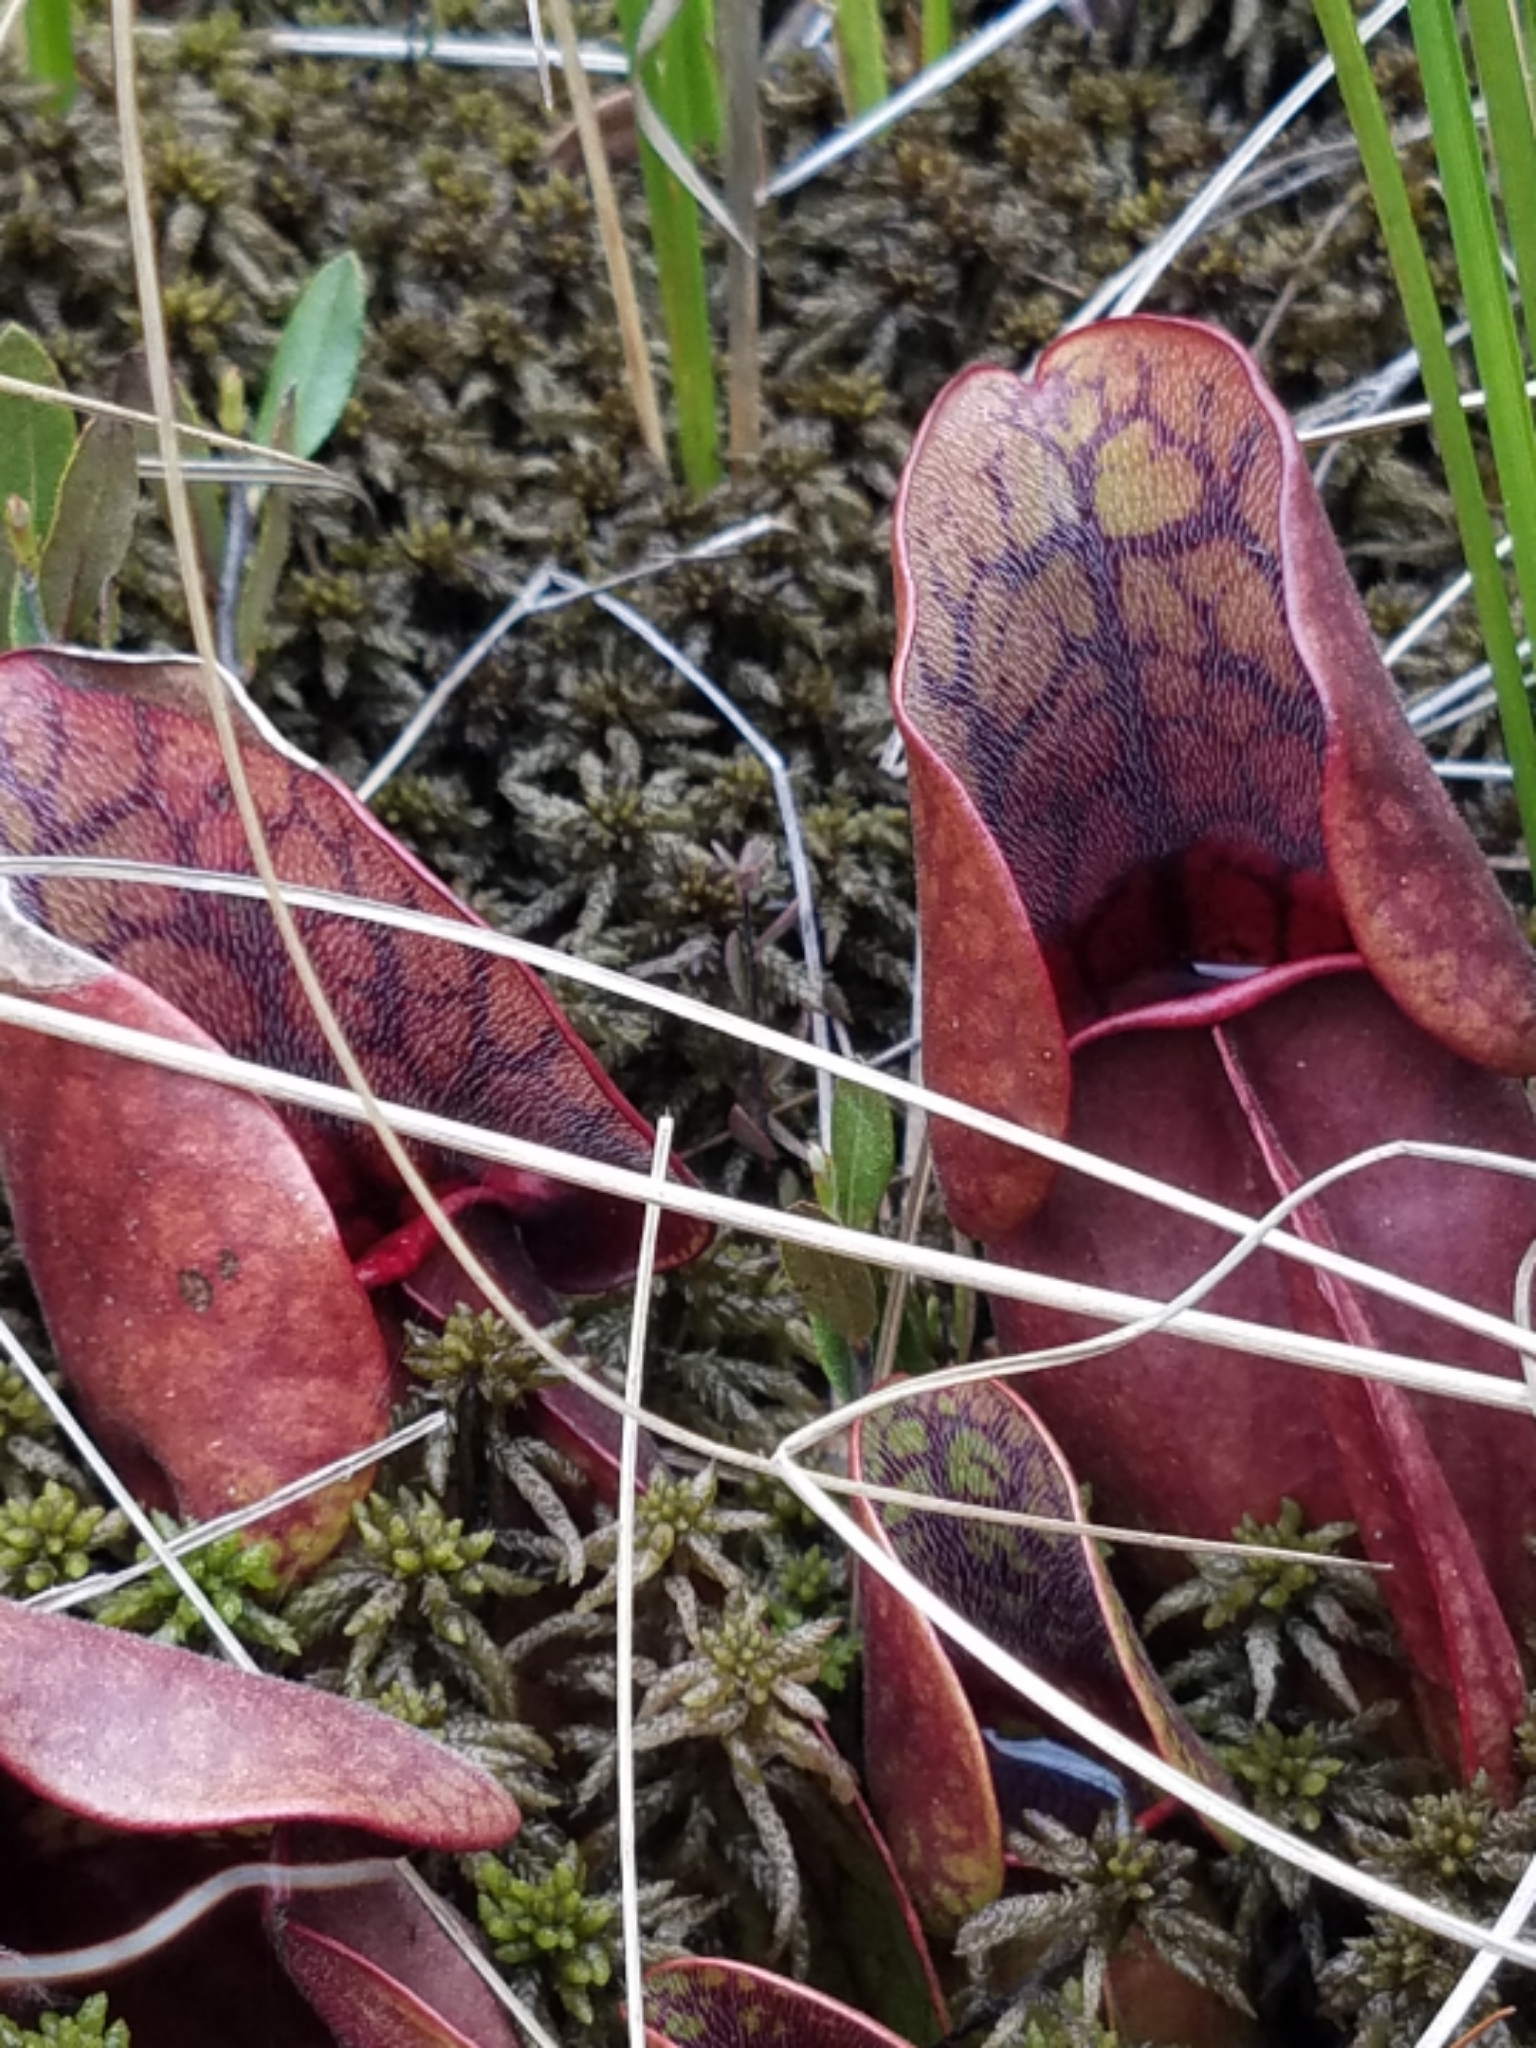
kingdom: Plantae
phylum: Tracheophyta
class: Magnoliopsida
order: Ericales
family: Sarraceniaceae
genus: Sarracenia
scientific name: Sarracenia purpurea
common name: Pitcherplant
